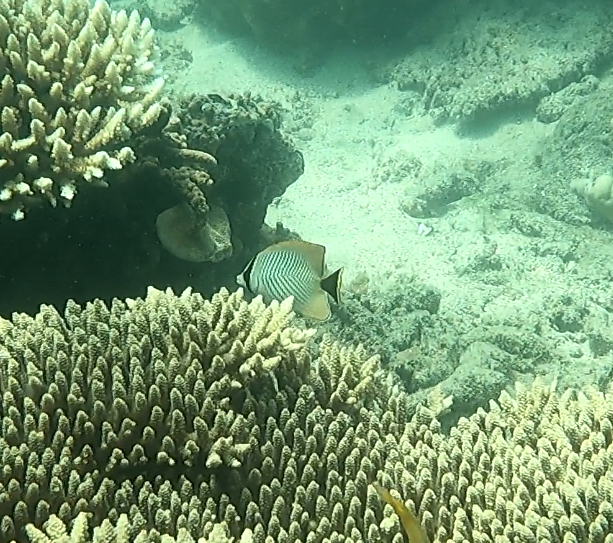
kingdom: Animalia
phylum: Chordata
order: Perciformes
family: Chaetodontidae
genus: Chaetodon
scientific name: Chaetodon trifascialis
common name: Chevroned butterflyfish
